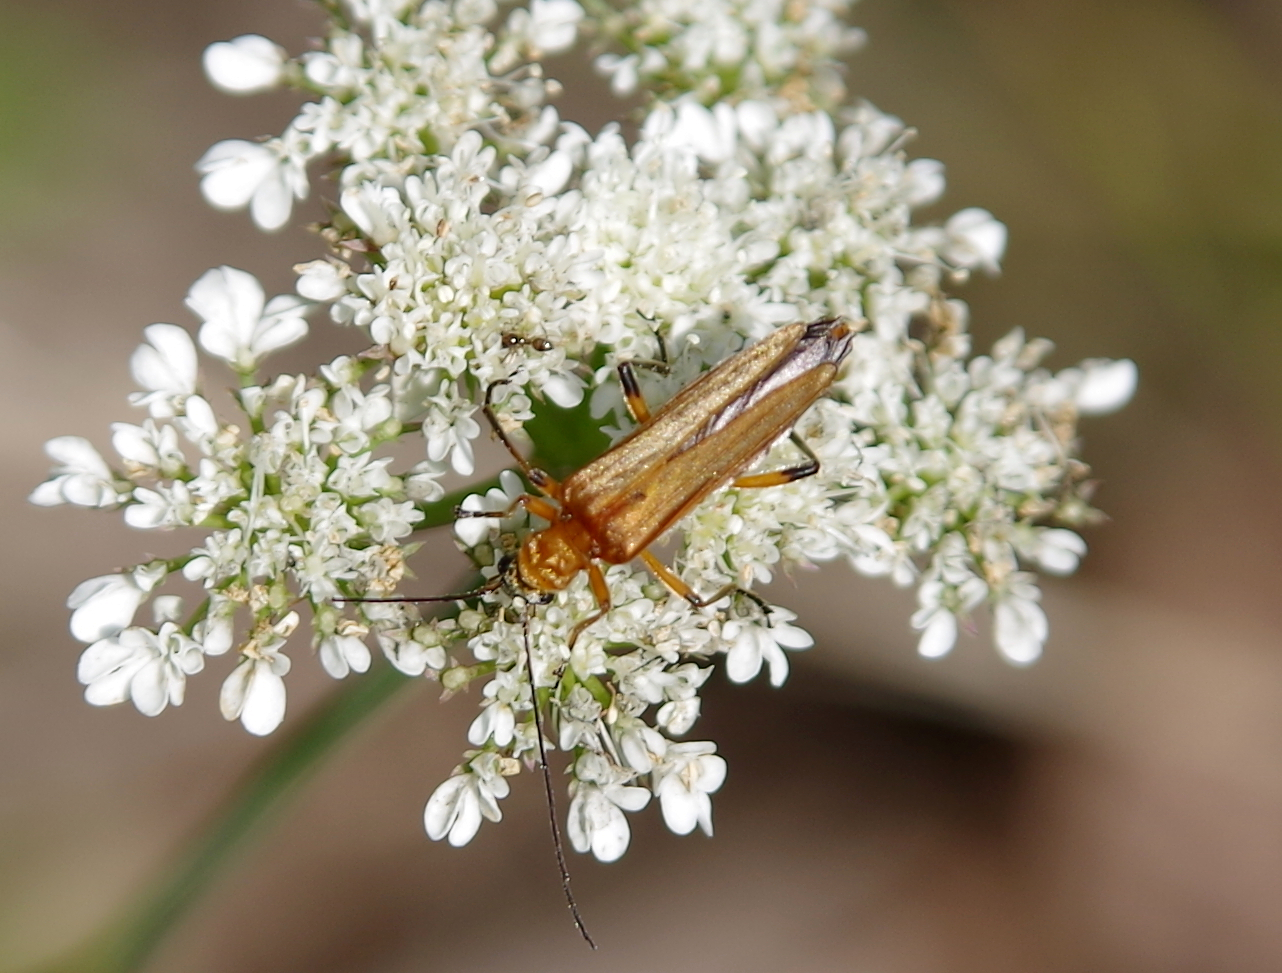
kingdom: Animalia
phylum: Arthropoda
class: Insecta
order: Coleoptera
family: Oedemeridae
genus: Oedemera
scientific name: Oedemera podagrariae
